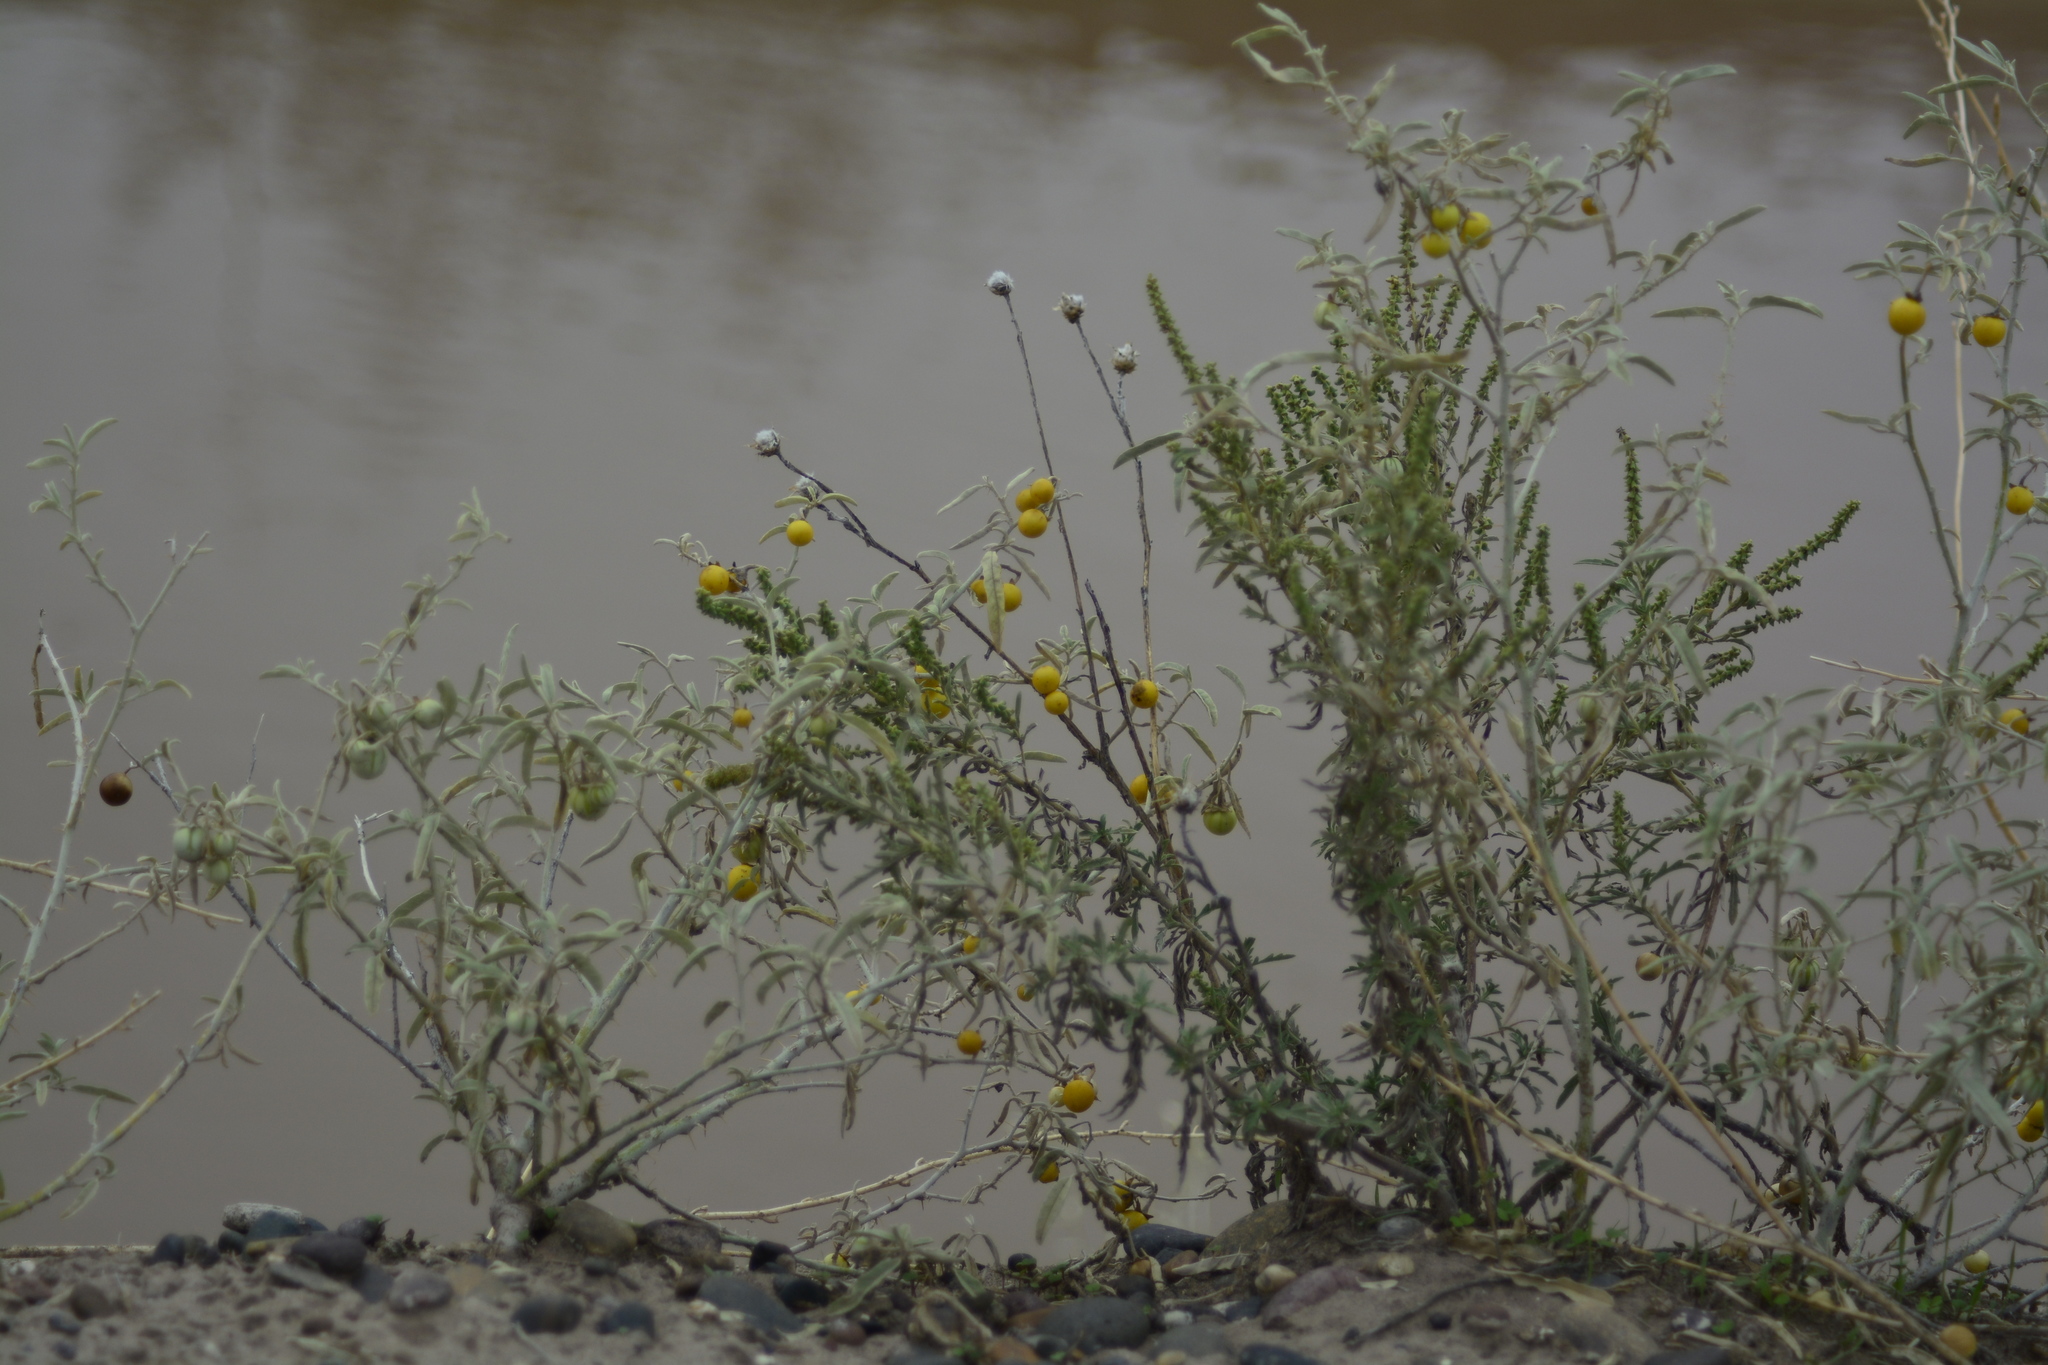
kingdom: Plantae
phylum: Tracheophyta
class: Magnoliopsida
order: Solanales
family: Solanaceae
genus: Solanum
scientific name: Solanum elaeagnifolium
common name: Silverleaf nightshade
